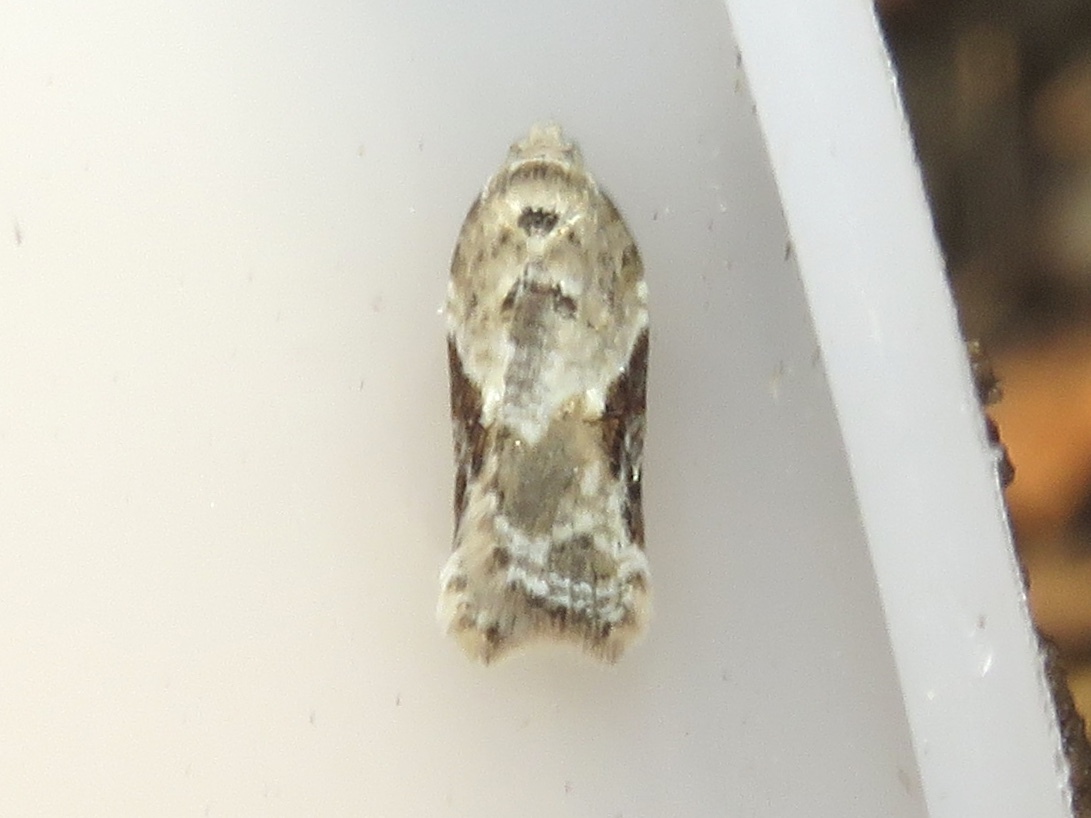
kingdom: Animalia
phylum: Arthropoda
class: Insecta
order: Lepidoptera
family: Tortricidae
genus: Acleris
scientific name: Acleris forbesana
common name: Forbes' acleris moth
